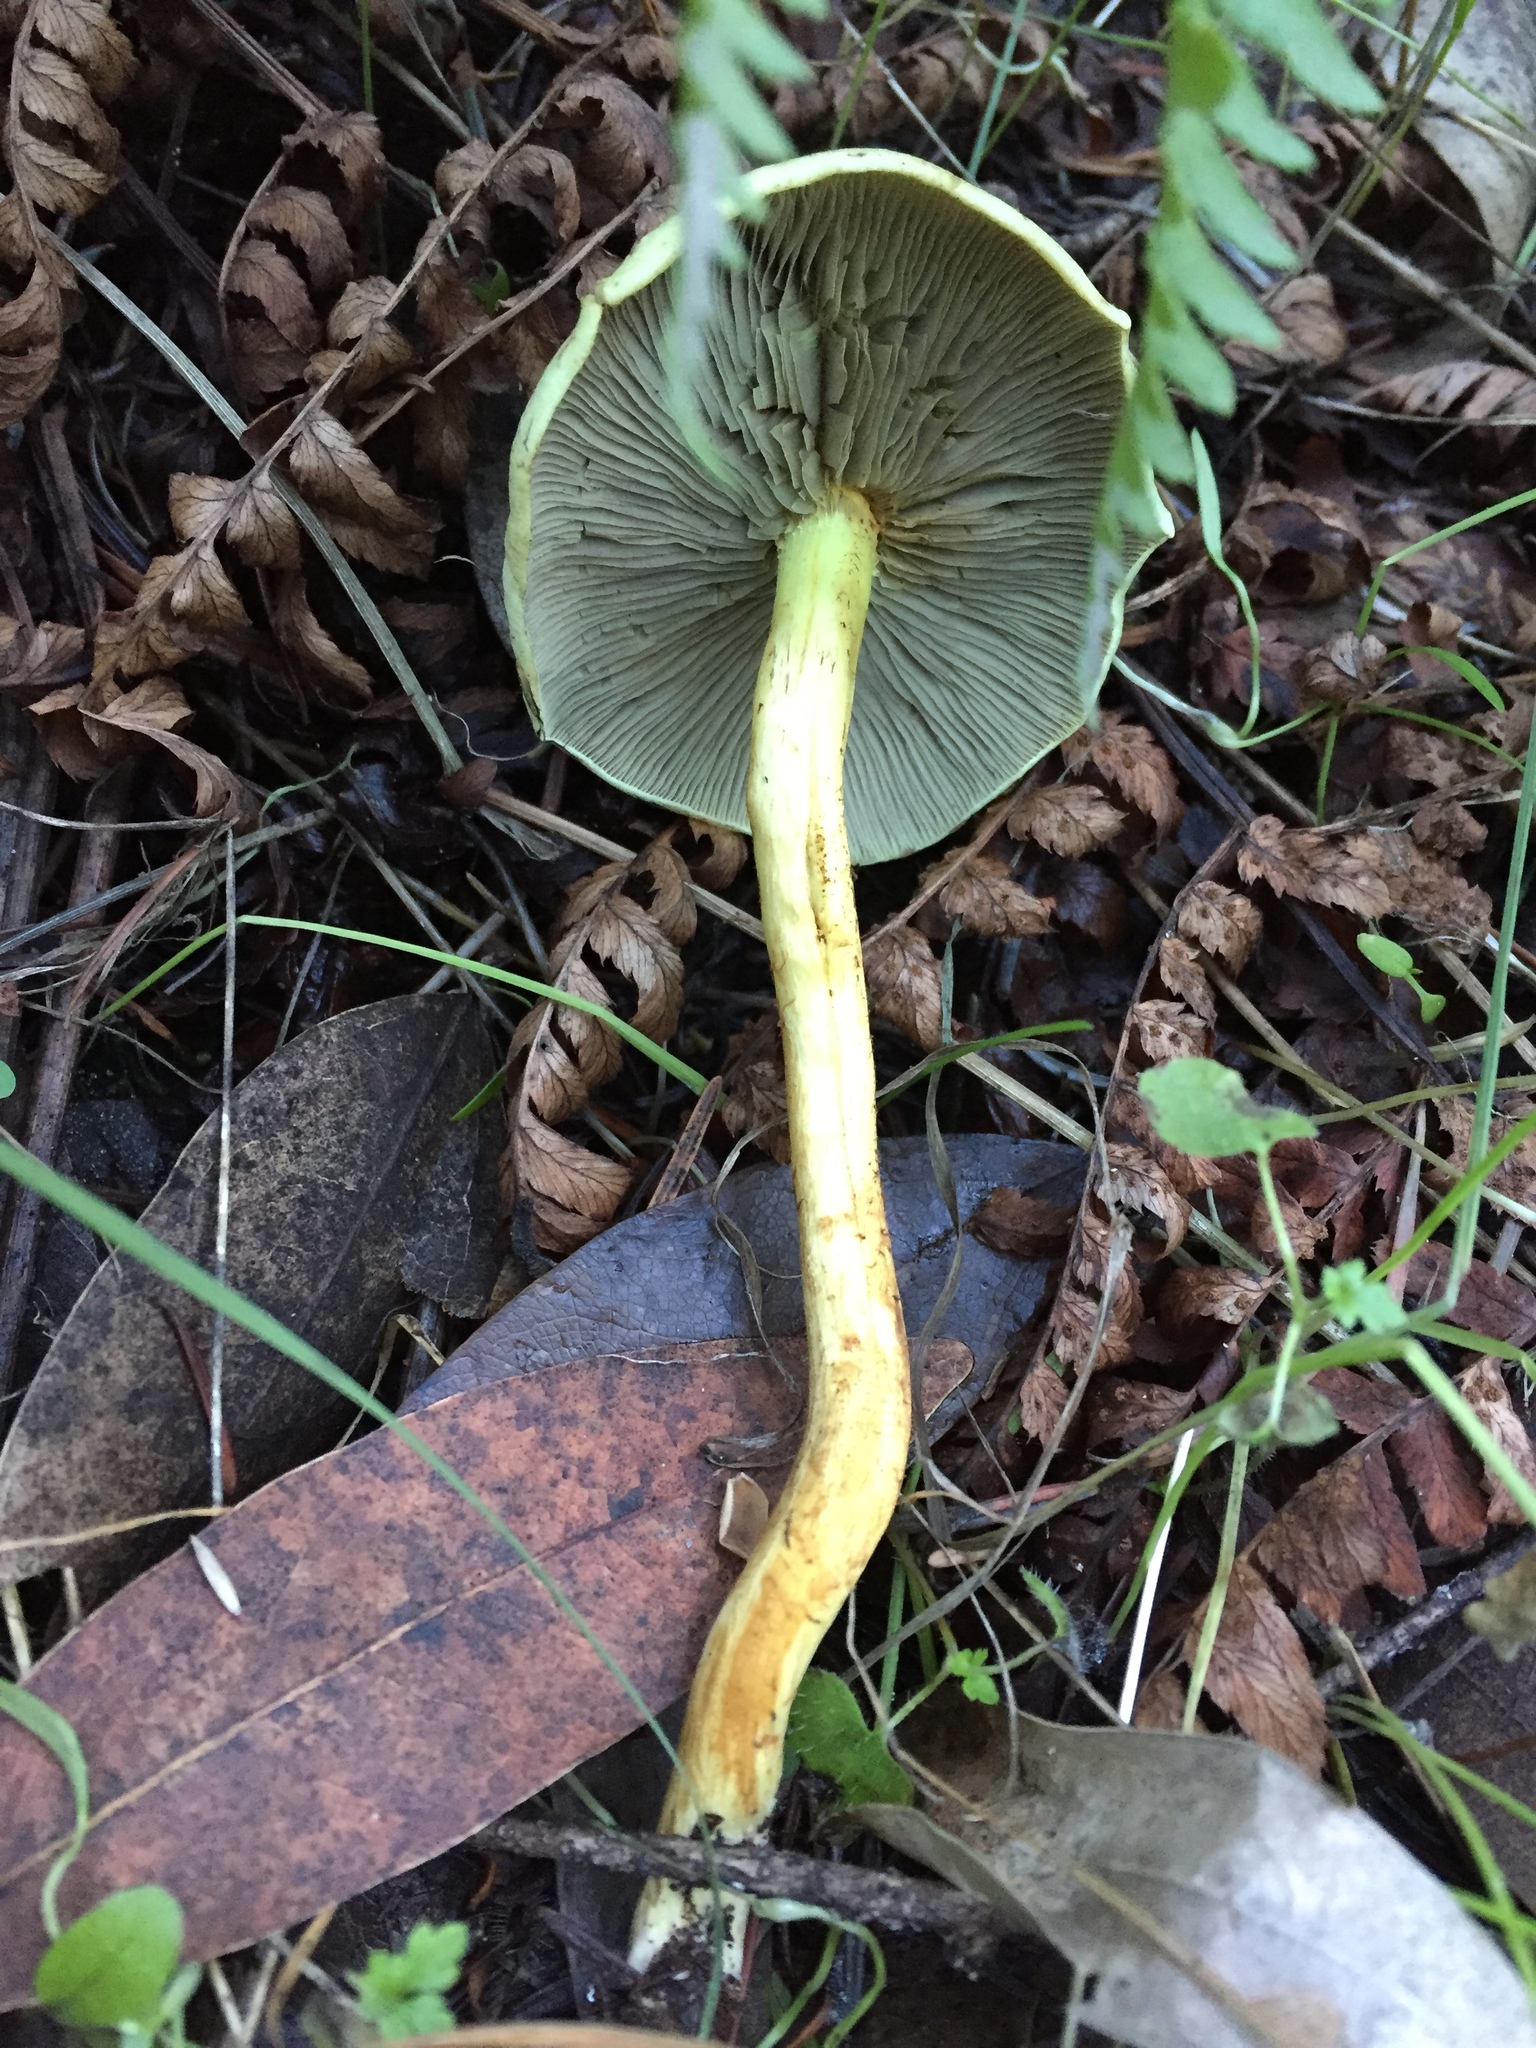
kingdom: Fungi
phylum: Basidiomycota
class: Agaricomycetes
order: Agaricales
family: Strophariaceae
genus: Hypholoma
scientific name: Hypholoma fasciculare
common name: Sulphur tuft
